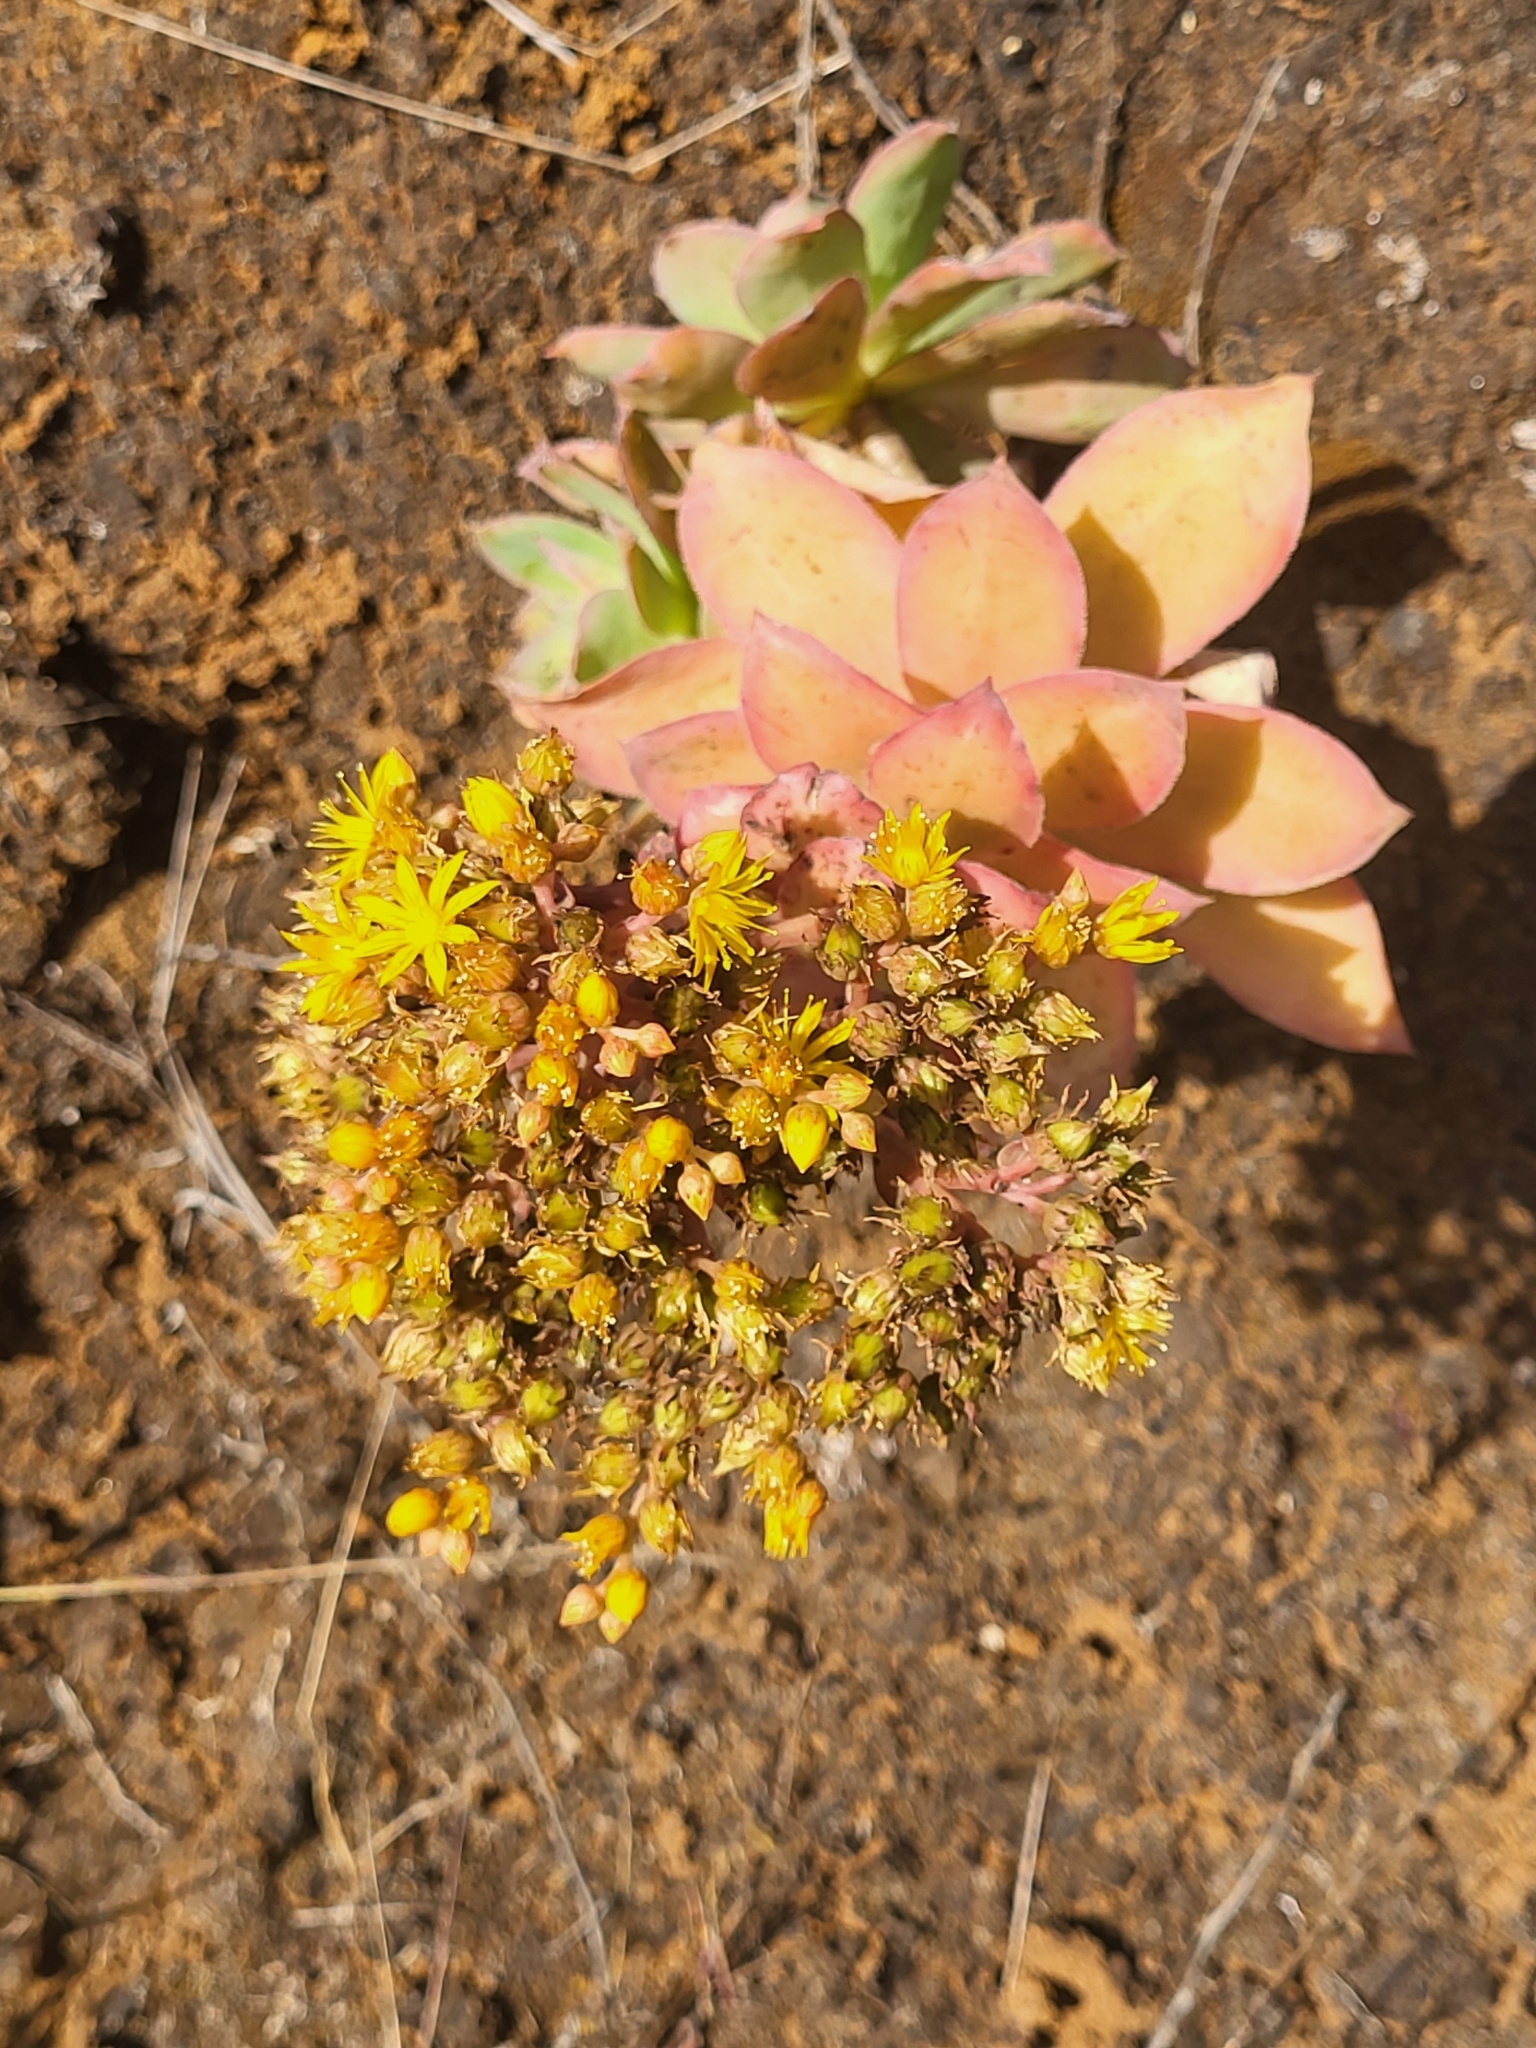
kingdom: Plantae
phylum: Tracheophyta
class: Magnoliopsida
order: Saxifragales
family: Crassulaceae
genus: Aeonium
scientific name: Aeonium gorgoneum
